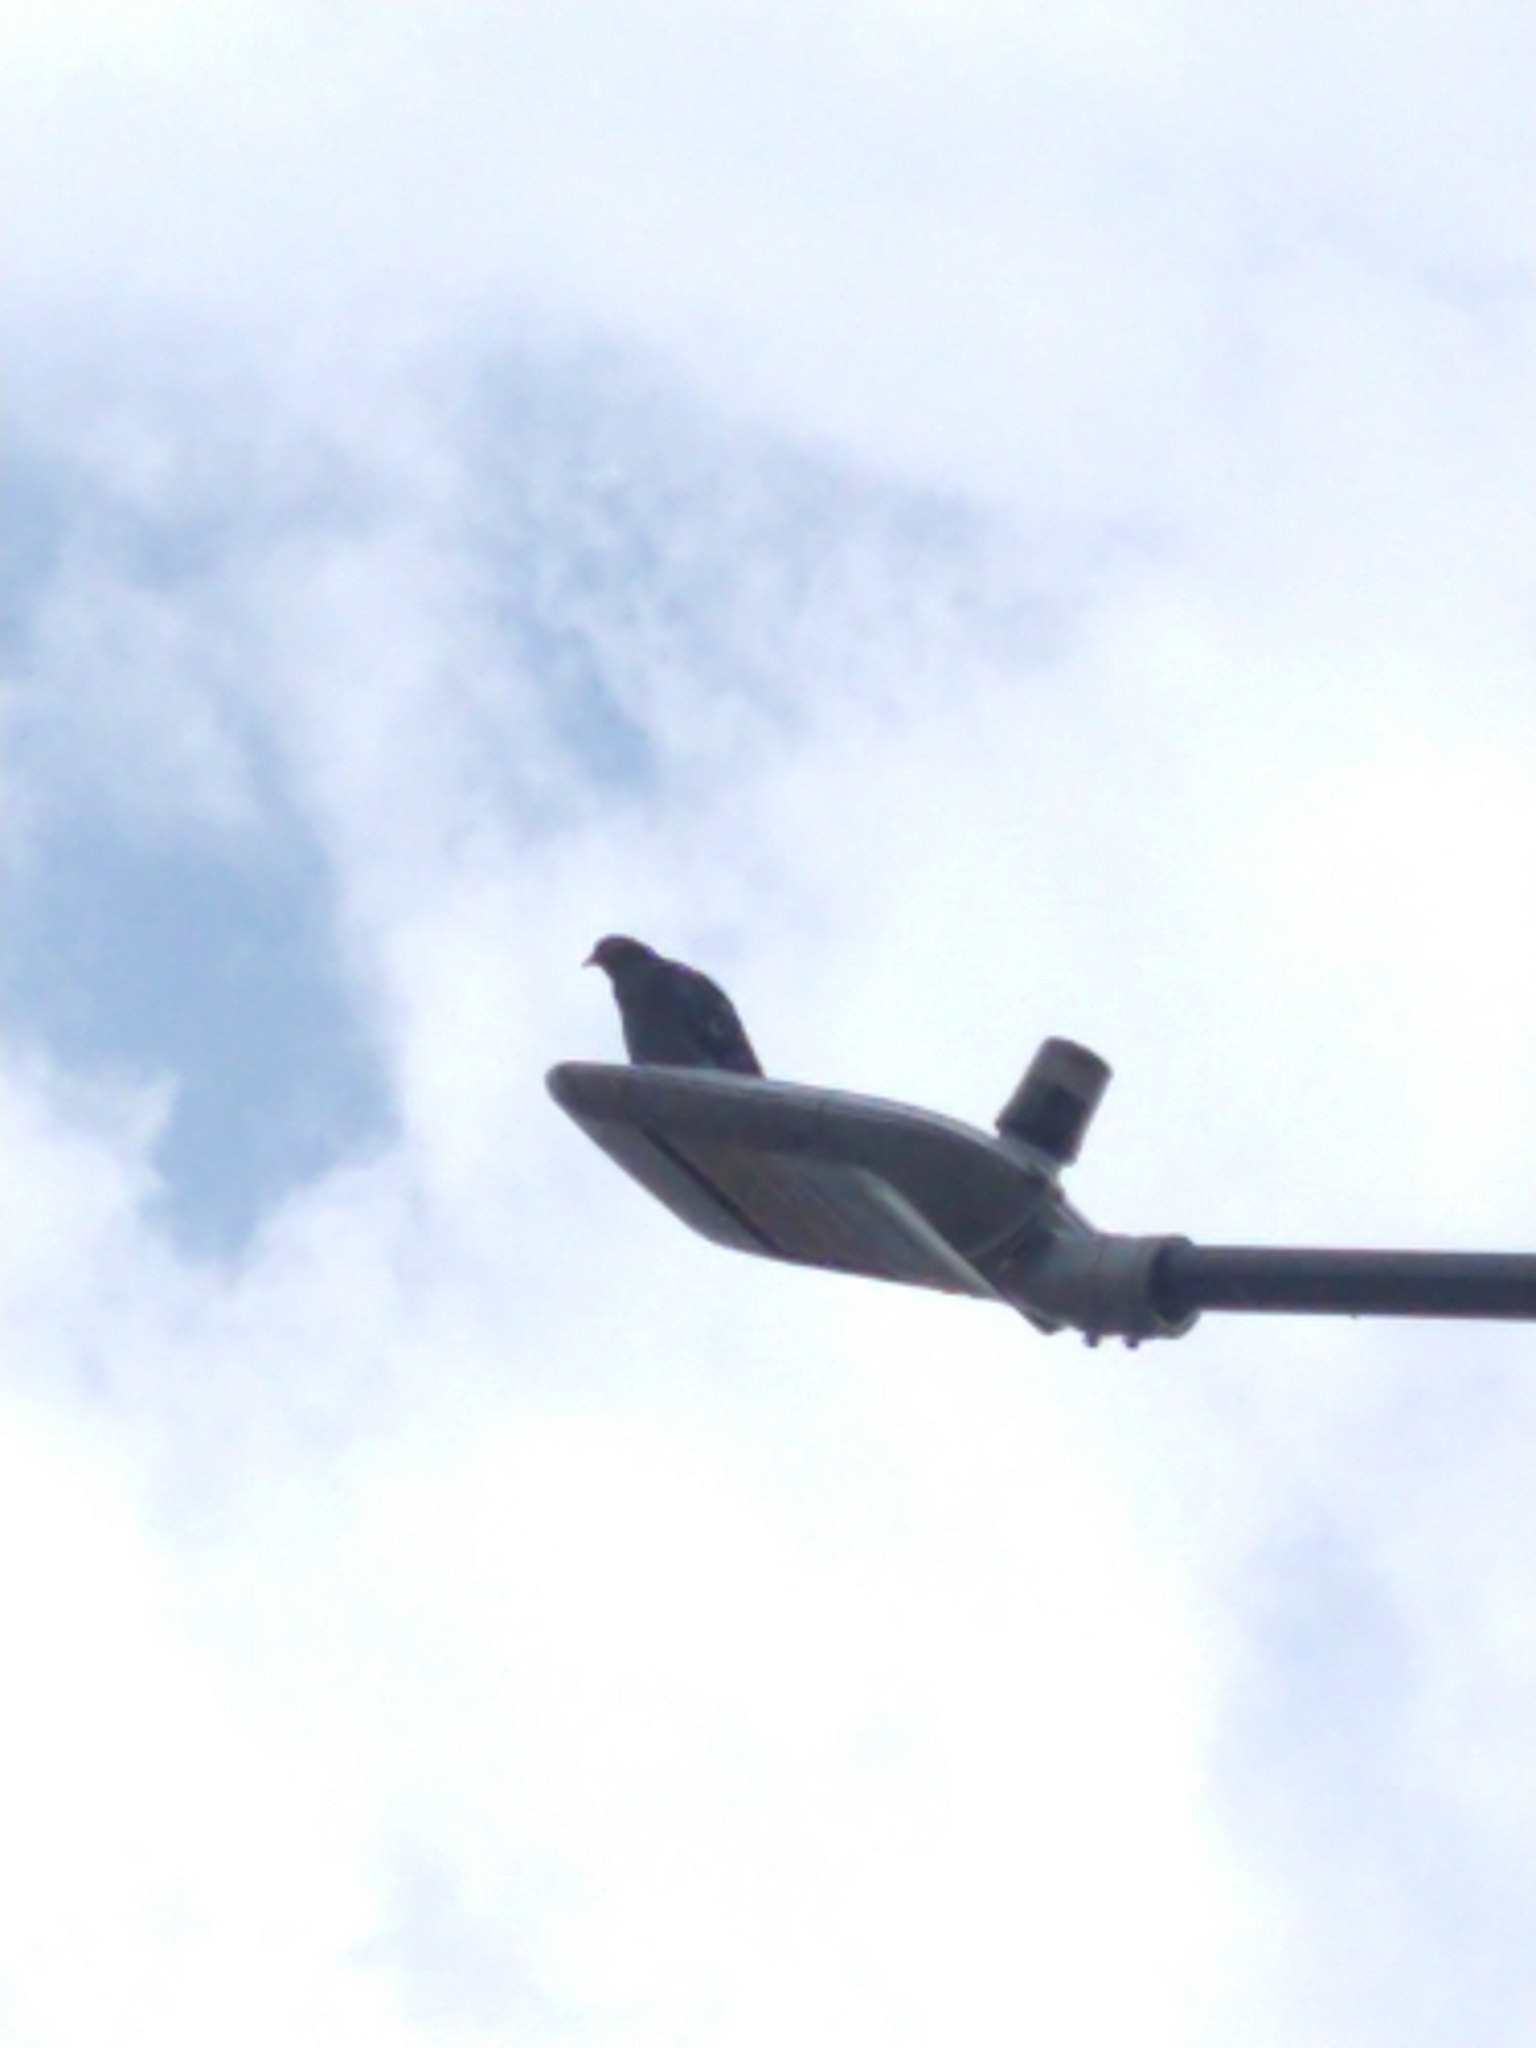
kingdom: Animalia
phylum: Chordata
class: Aves
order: Columbiformes
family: Columbidae
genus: Columba
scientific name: Columba livia
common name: Rock pigeon
